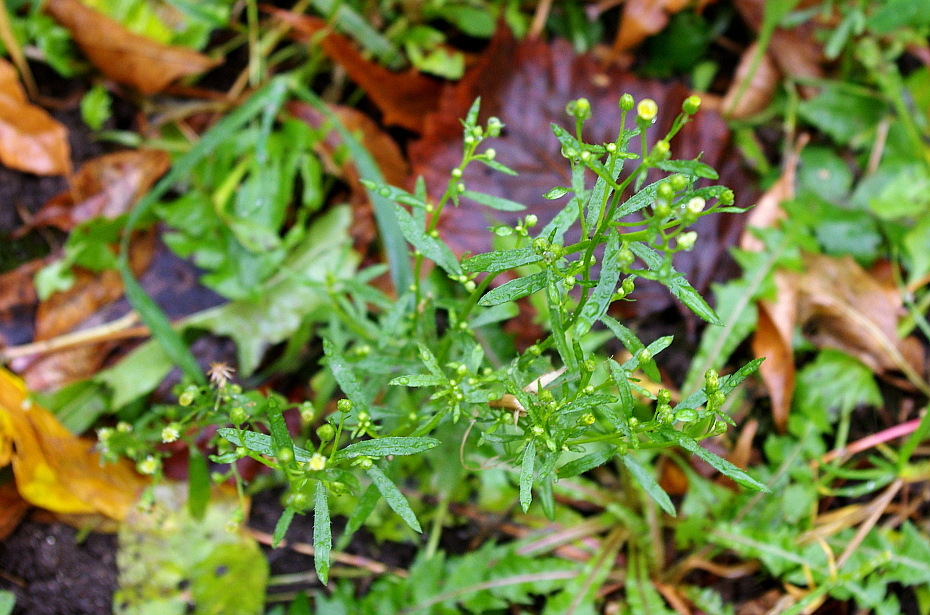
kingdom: Plantae
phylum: Tracheophyta
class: Magnoliopsida
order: Asterales
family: Asteraceae
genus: Erigeron
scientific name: Erigeron canadensis
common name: Canadian fleabane
